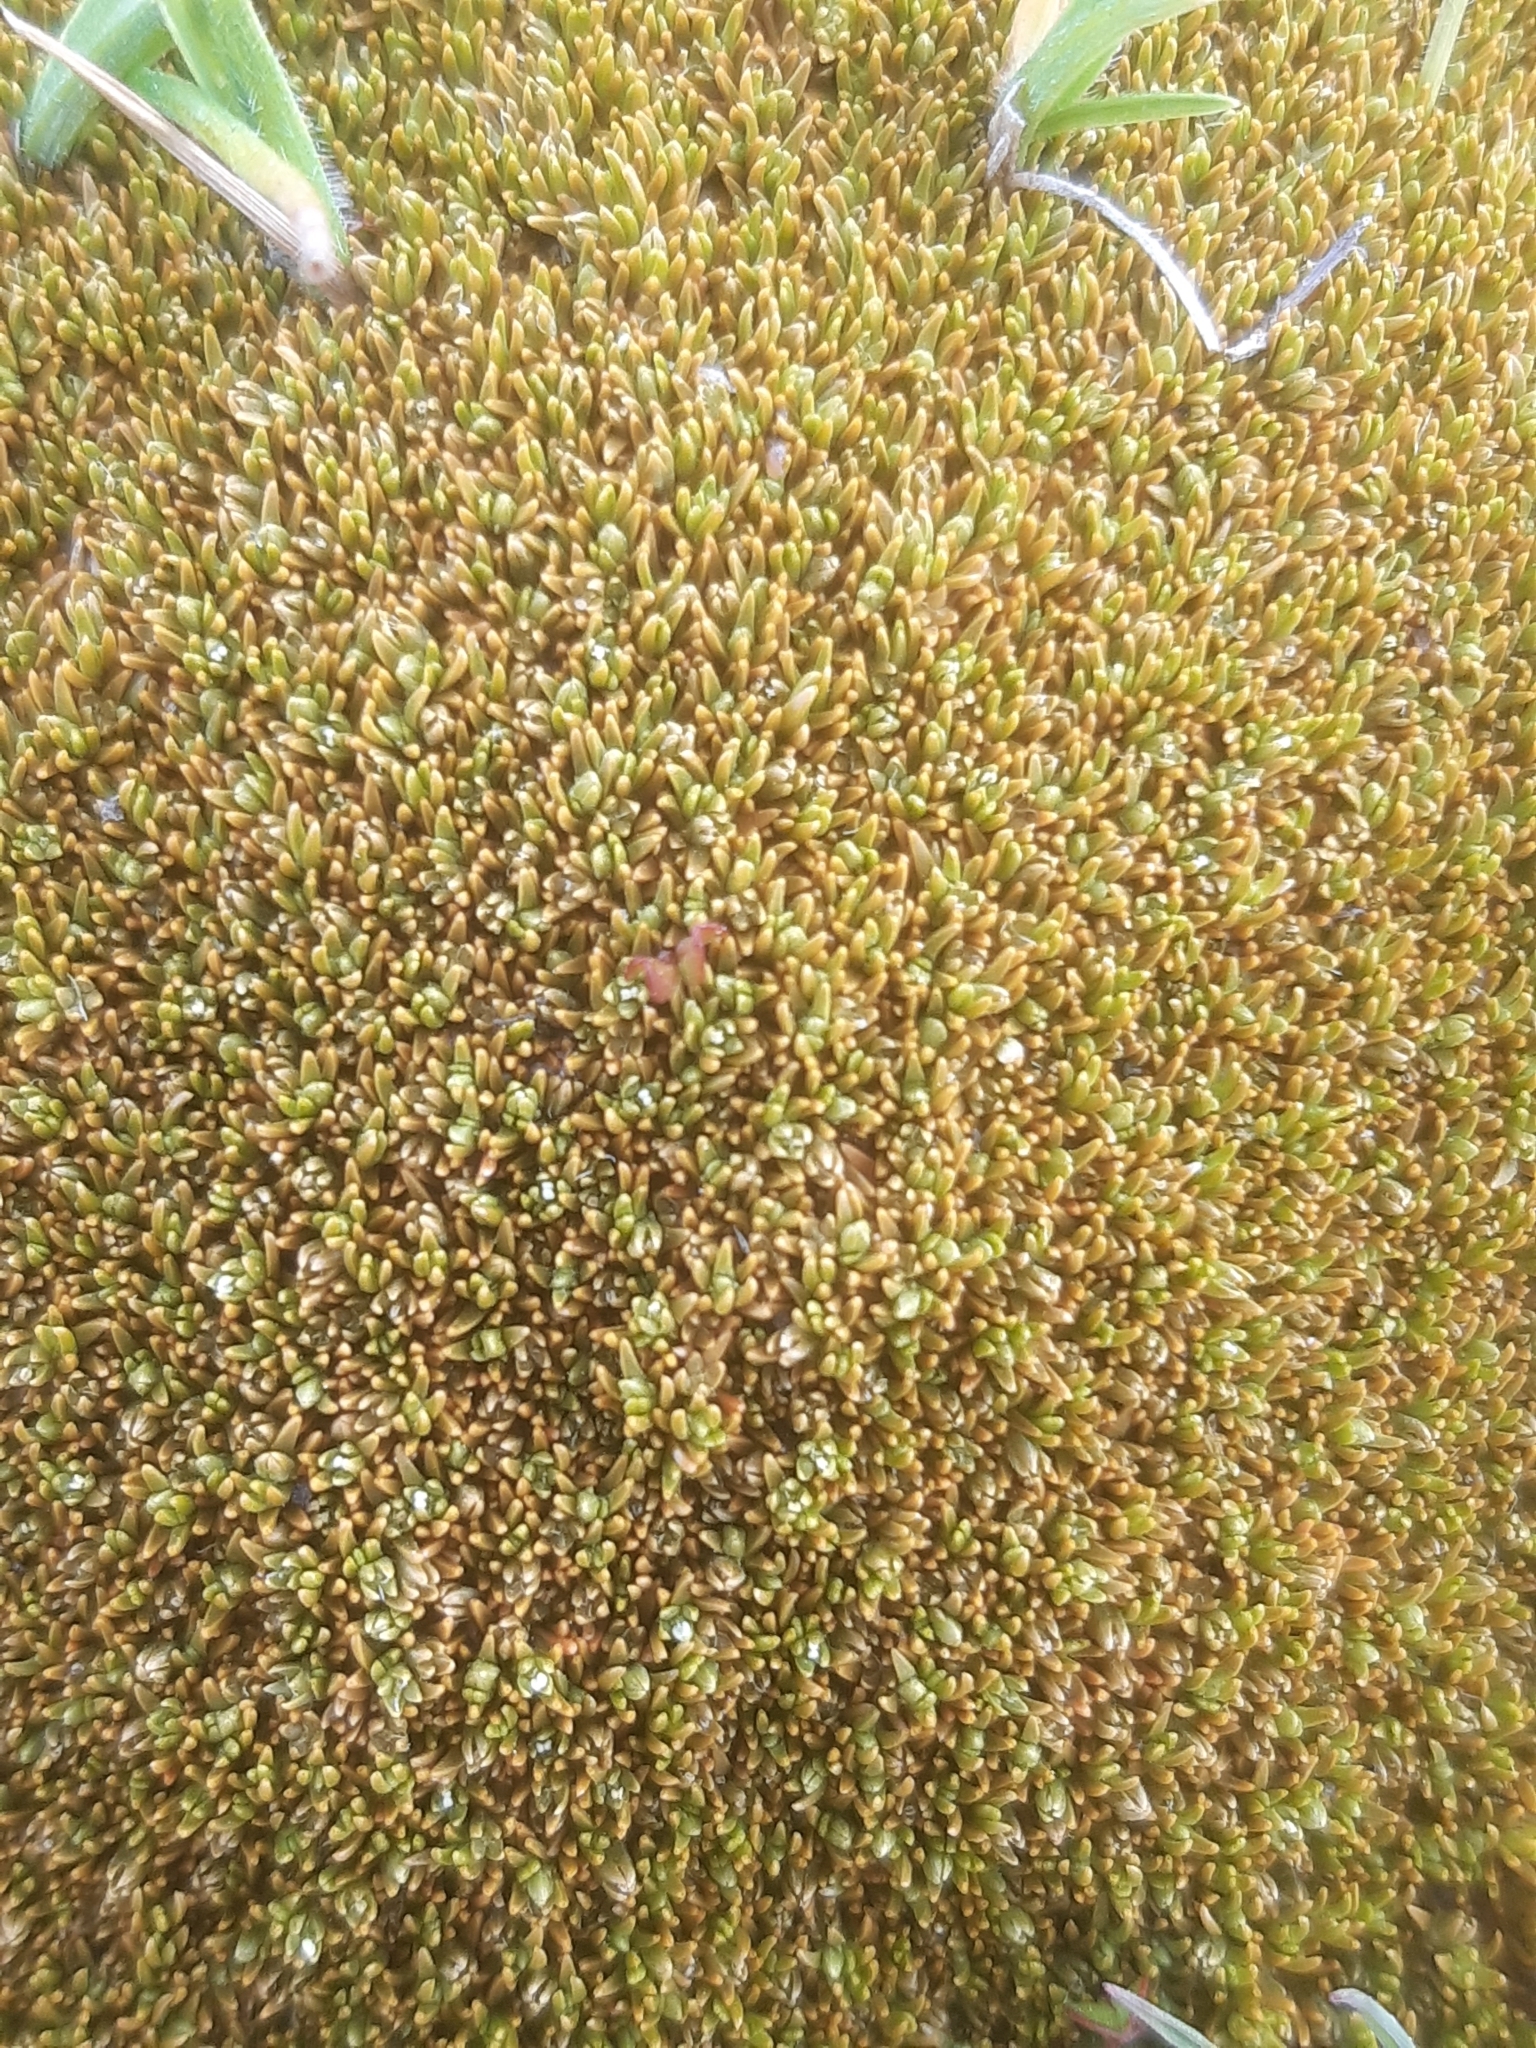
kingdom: Plantae
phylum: Tracheophyta
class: Magnoliopsida
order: Caryophyllales
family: Caryophyllaceae
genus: Scleranthus
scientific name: Scleranthus uniflorus
